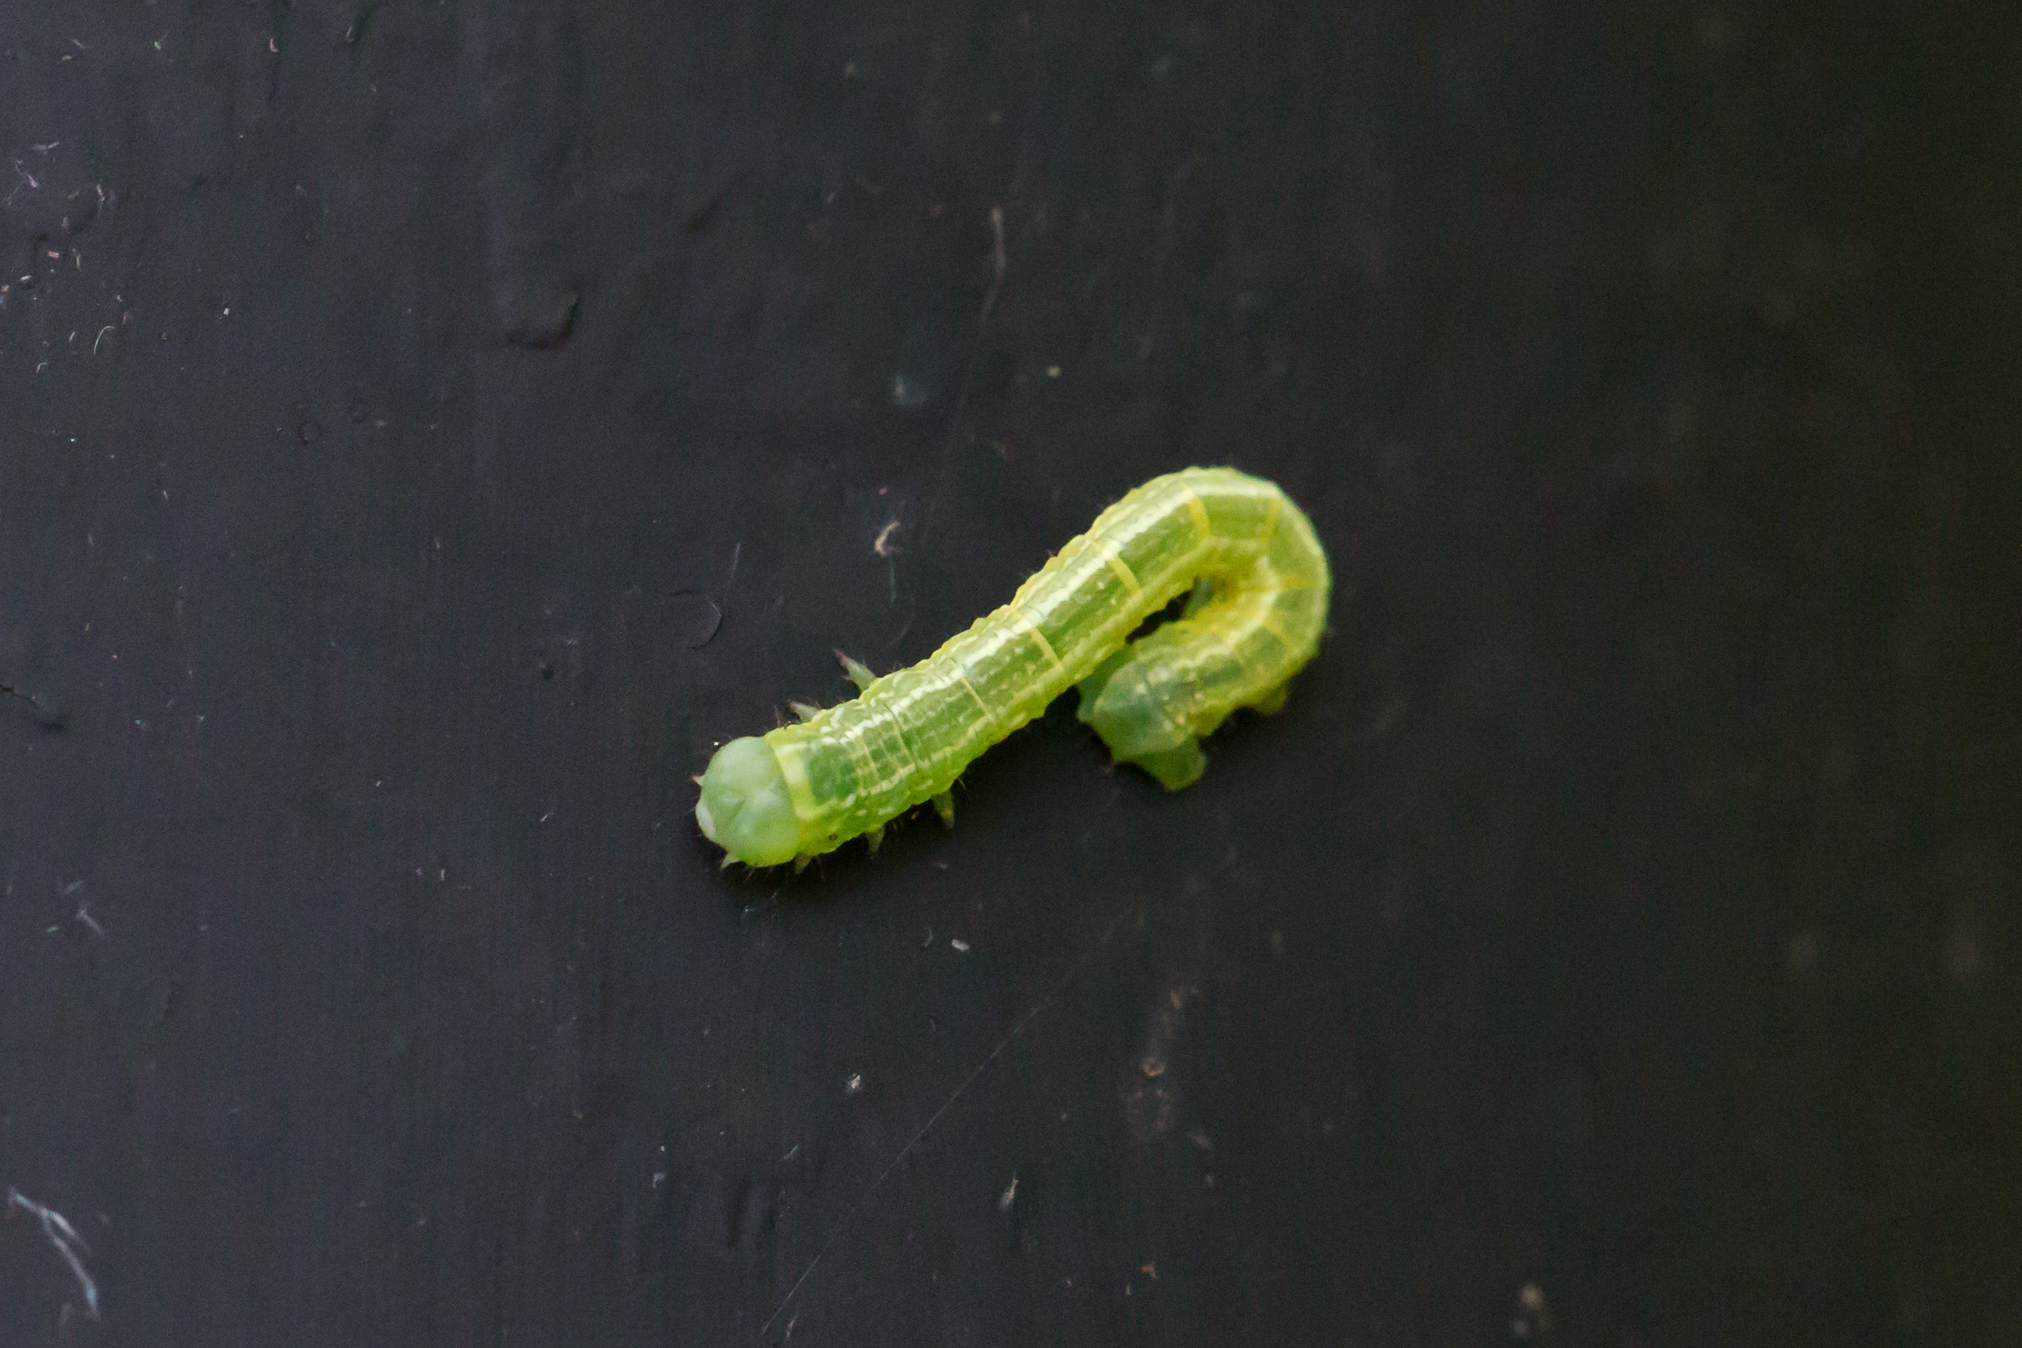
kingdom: Animalia
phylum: Arthropoda
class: Insecta
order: Lepidoptera
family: Geometridae
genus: Alsophila
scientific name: Alsophila pometaria
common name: Fall cankerworm
